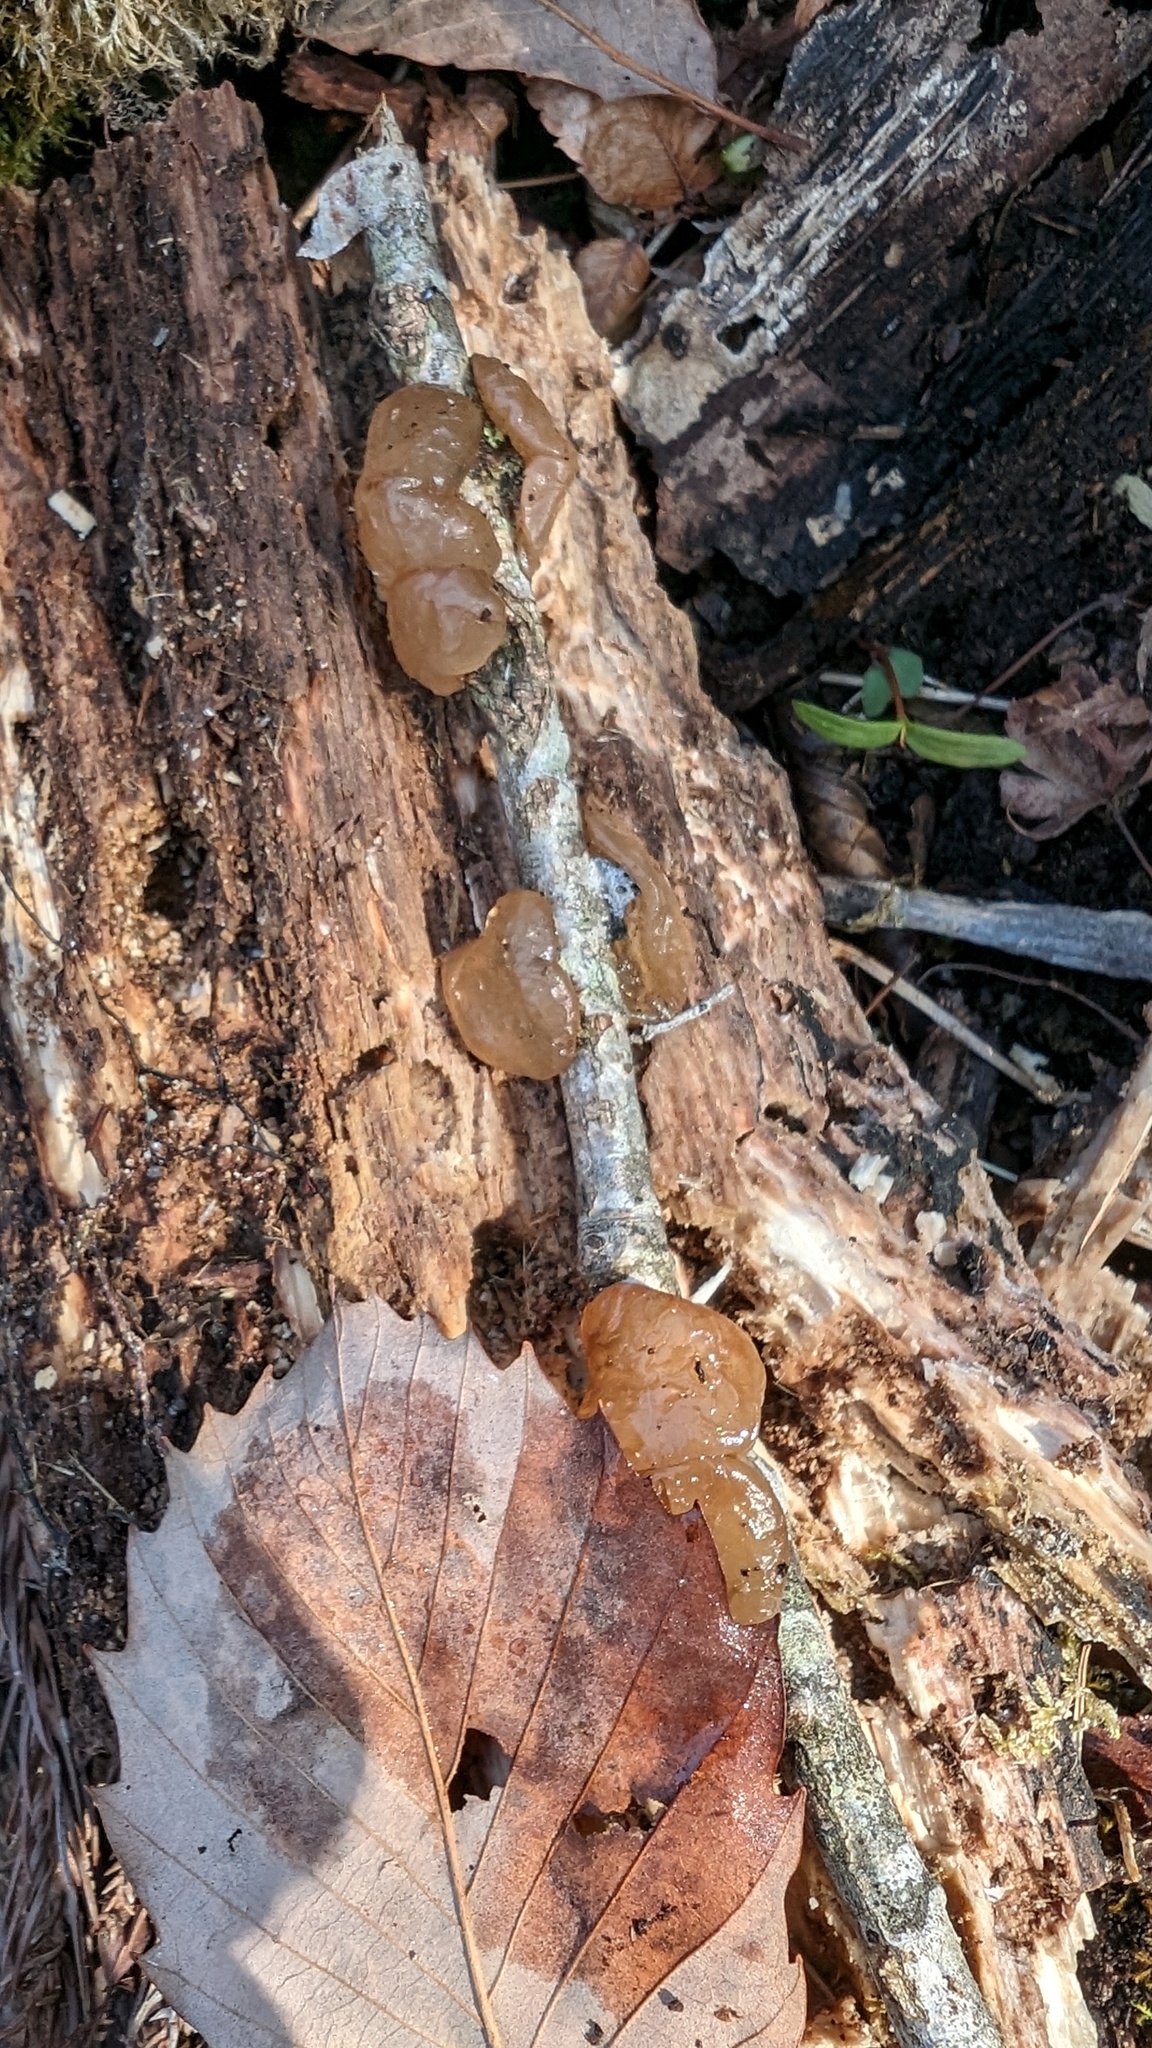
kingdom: Fungi
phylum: Basidiomycota
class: Agaricomycetes
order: Auriculariales
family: Auriculariaceae
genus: Exidia
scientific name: Exidia uvapassa
